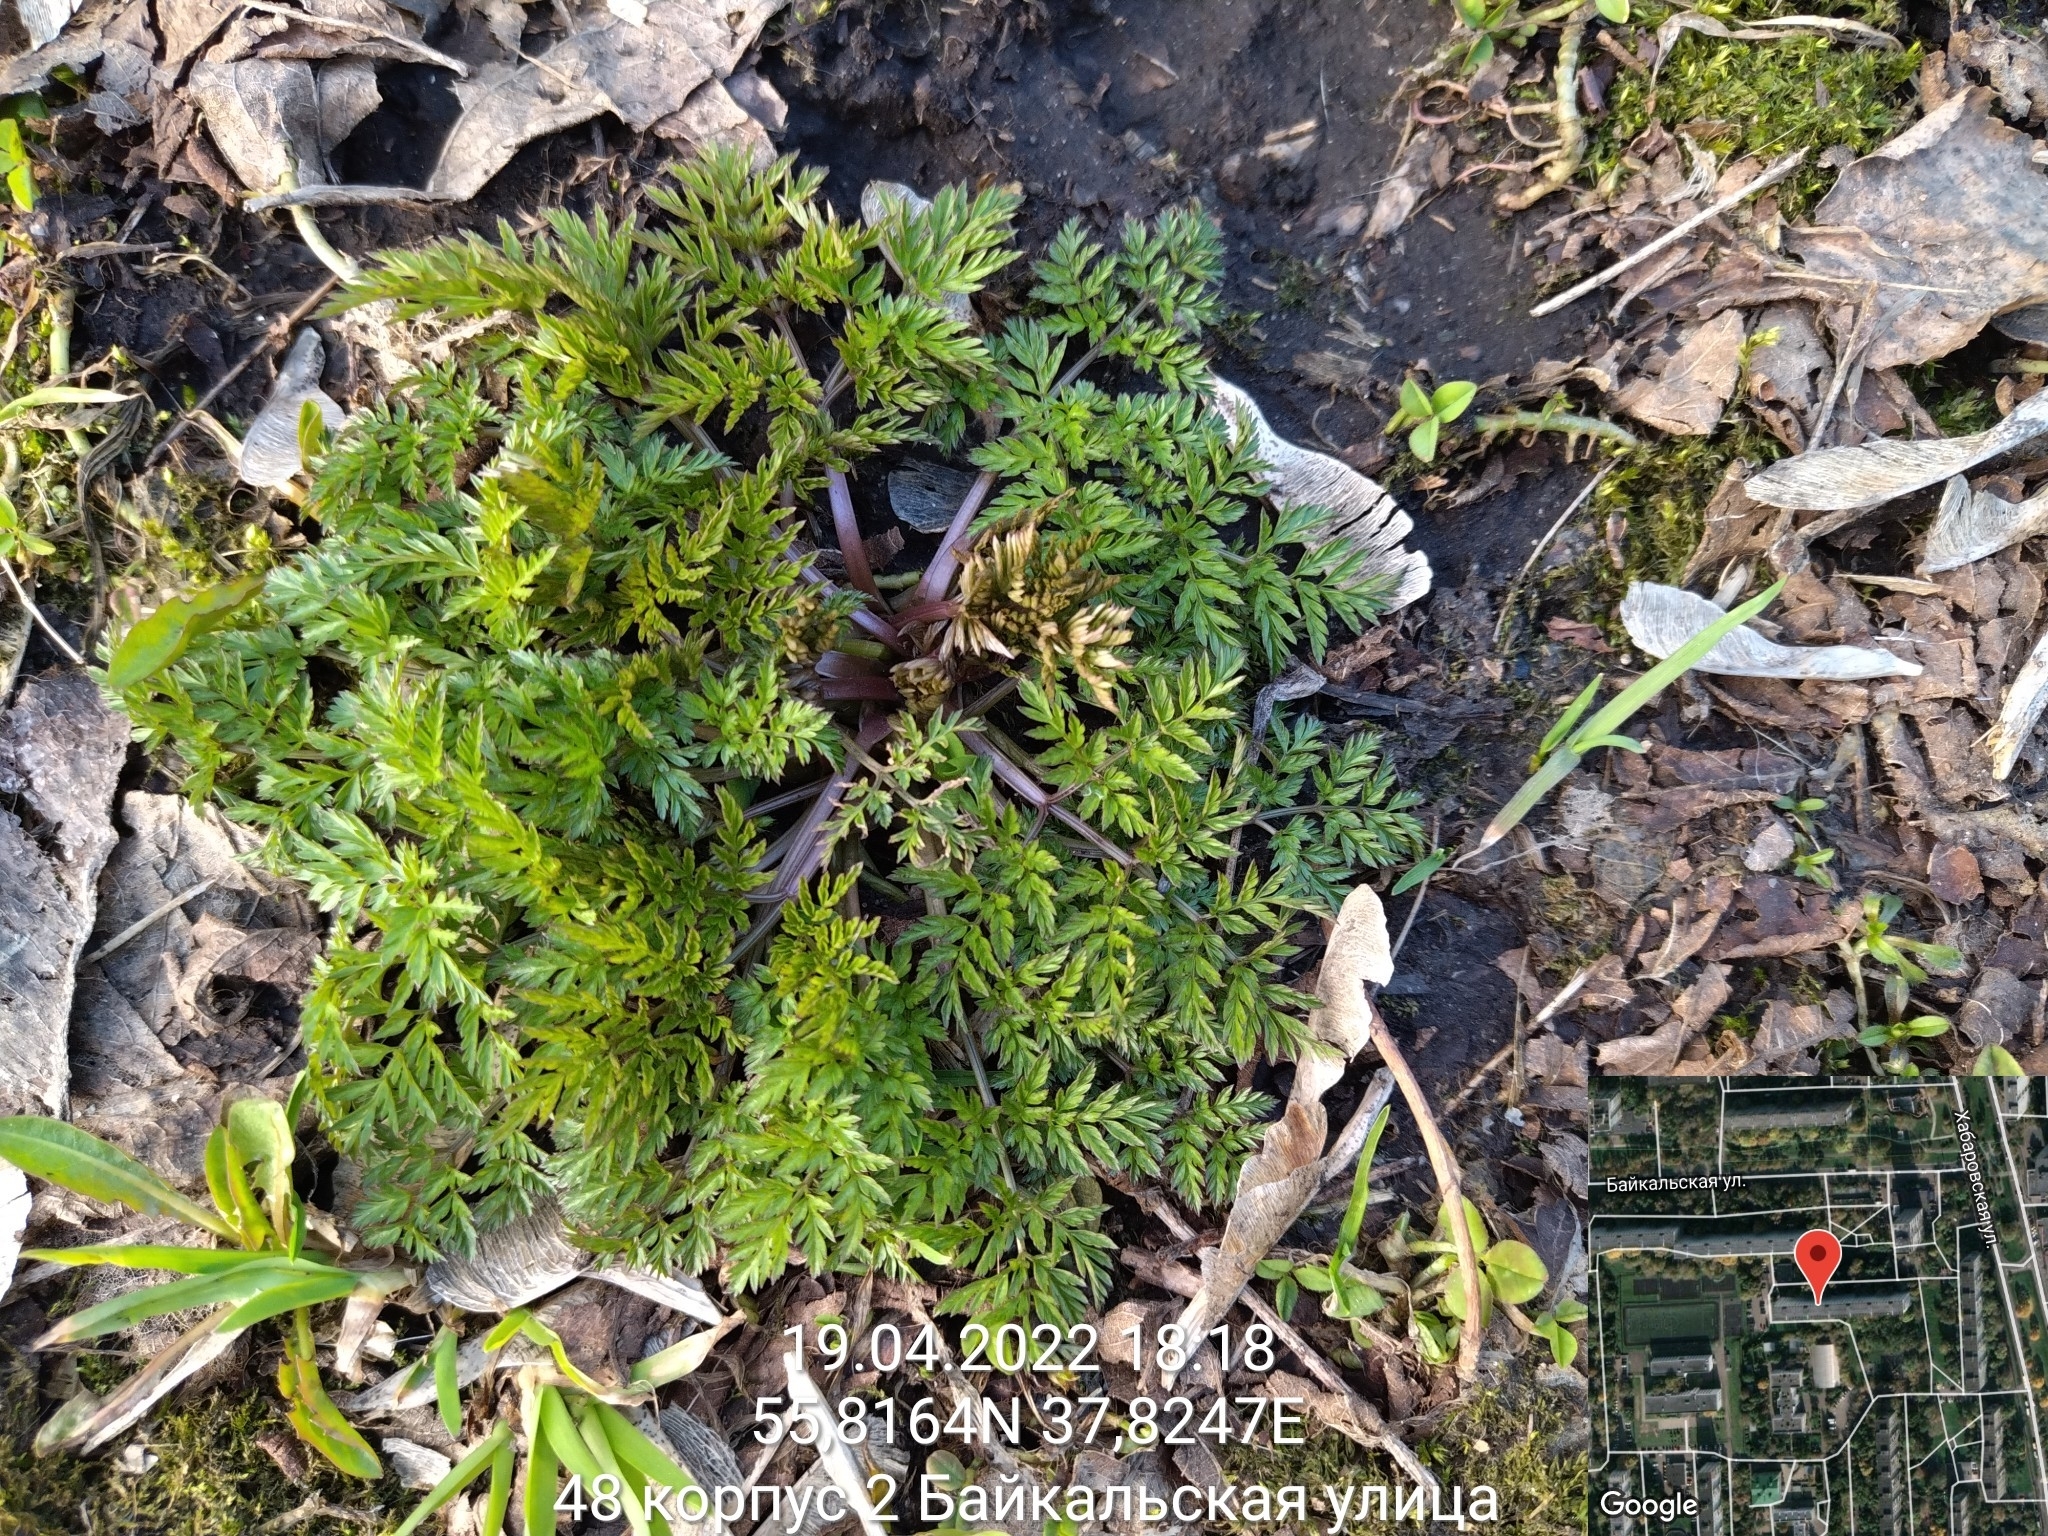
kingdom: Plantae
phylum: Tracheophyta
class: Magnoliopsida
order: Apiales
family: Apiaceae
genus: Anthriscus
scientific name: Anthriscus sylvestris
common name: Cow parsley
